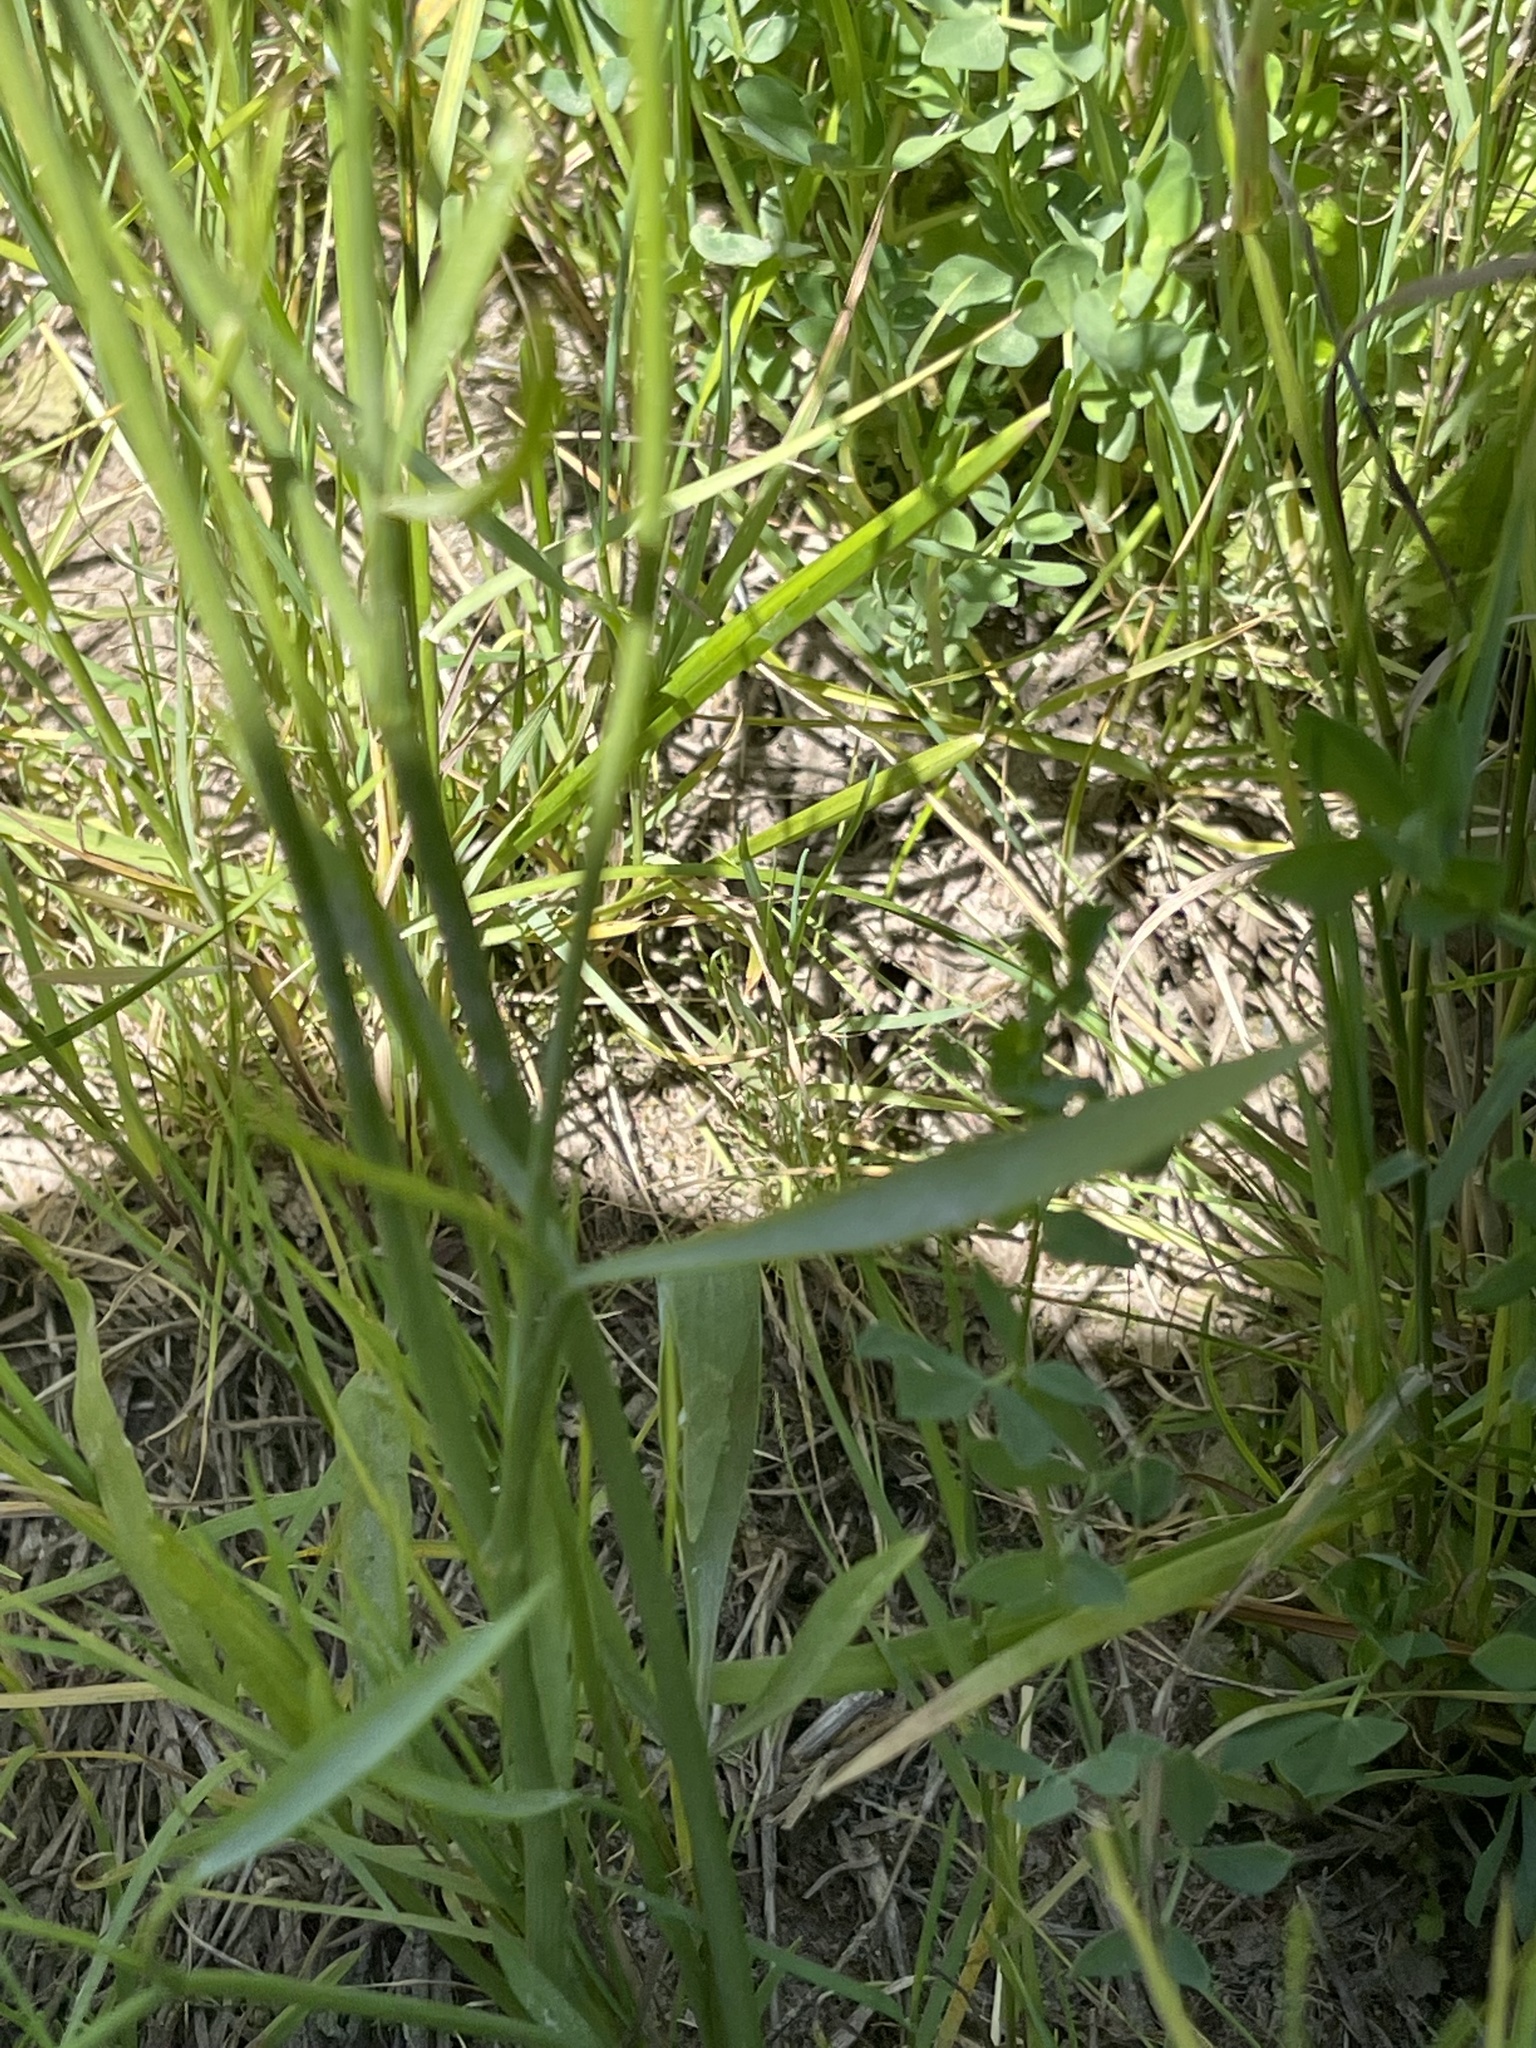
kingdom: Plantae
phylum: Tracheophyta
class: Magnoliopsida
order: Apiales
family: Apiaceae
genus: Perideridia
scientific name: Perideridia gairdneri
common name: False caraway
